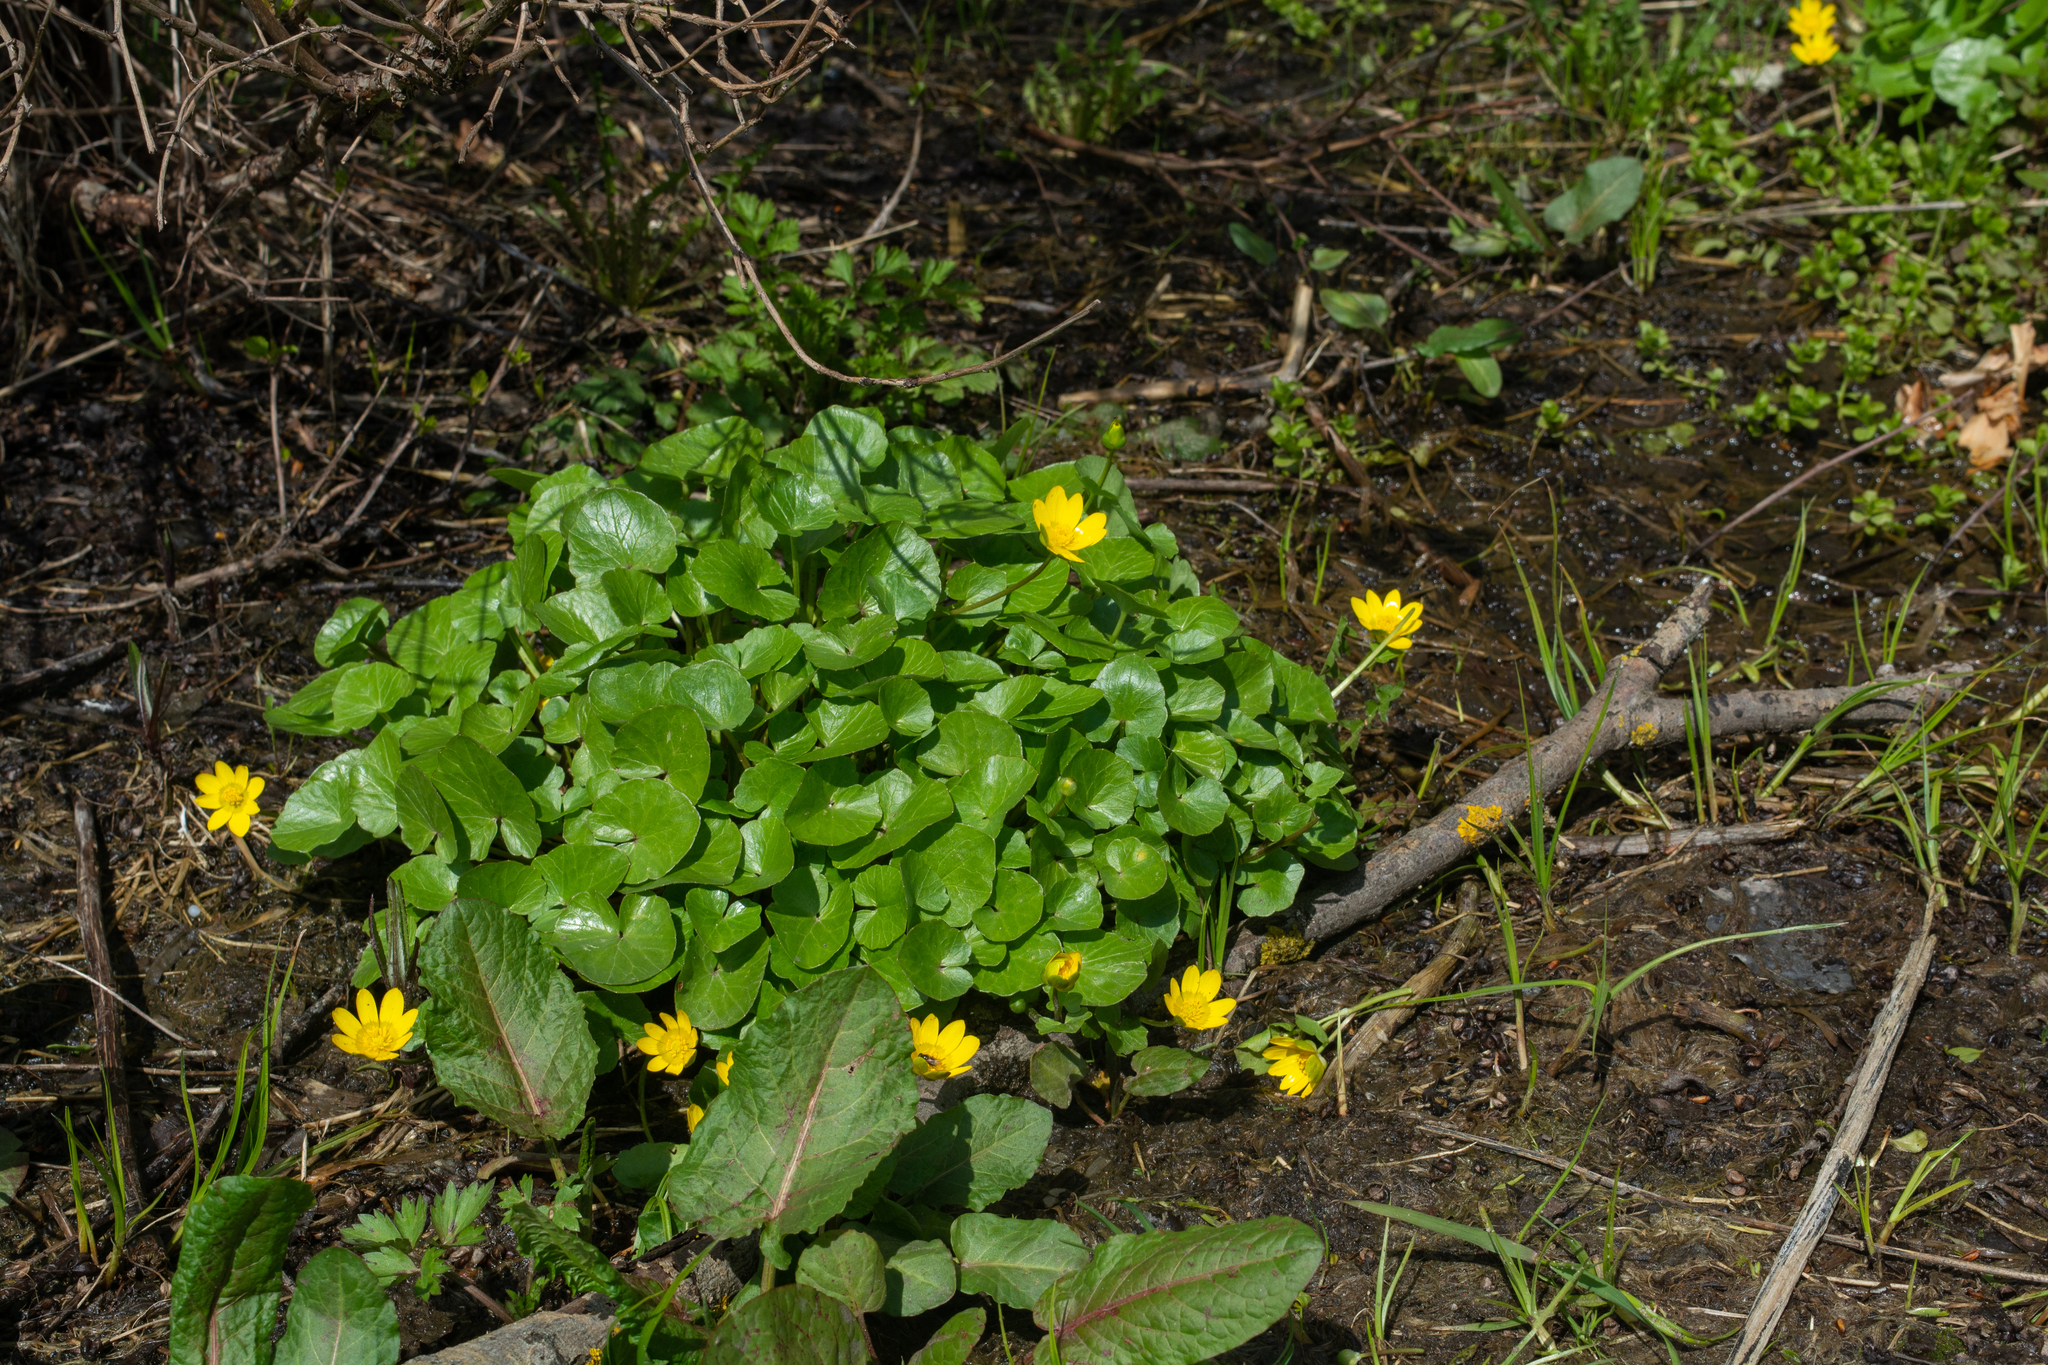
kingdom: Plantae
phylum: Tracheophyta
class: Magnoliopsida
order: Ranunculales
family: Ranunculaceae
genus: Ficaria
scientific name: Ficaria verna
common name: Lesser celandine
